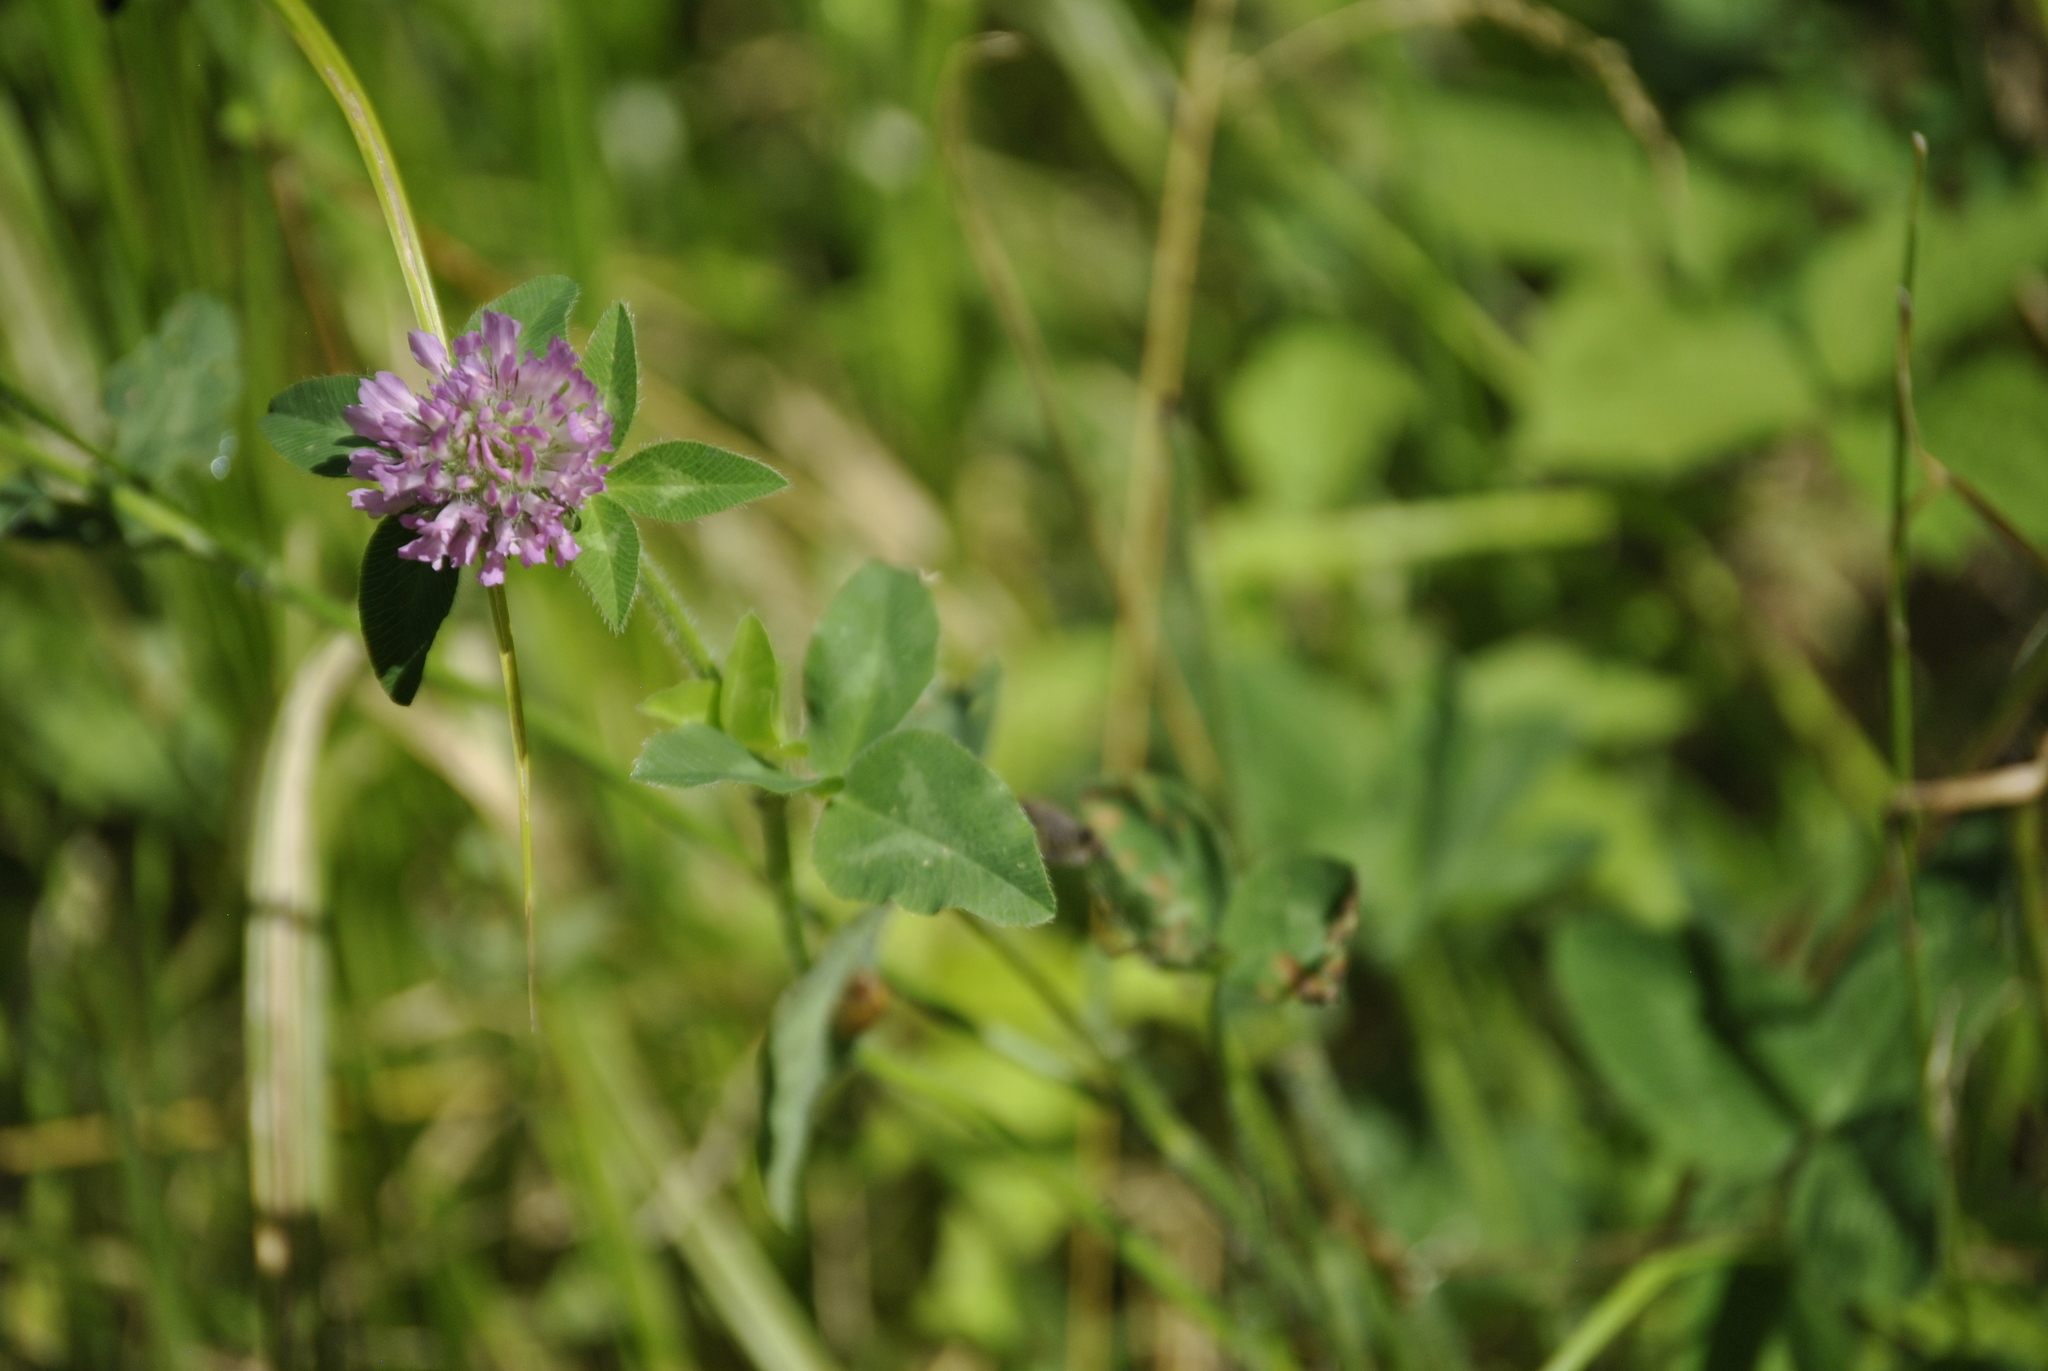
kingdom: Plantae
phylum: Tracheophyta
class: Magnoliopsida
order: Fabales
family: Fabaceae
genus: Trifolium
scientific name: Trifolium pratense
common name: Red clover
